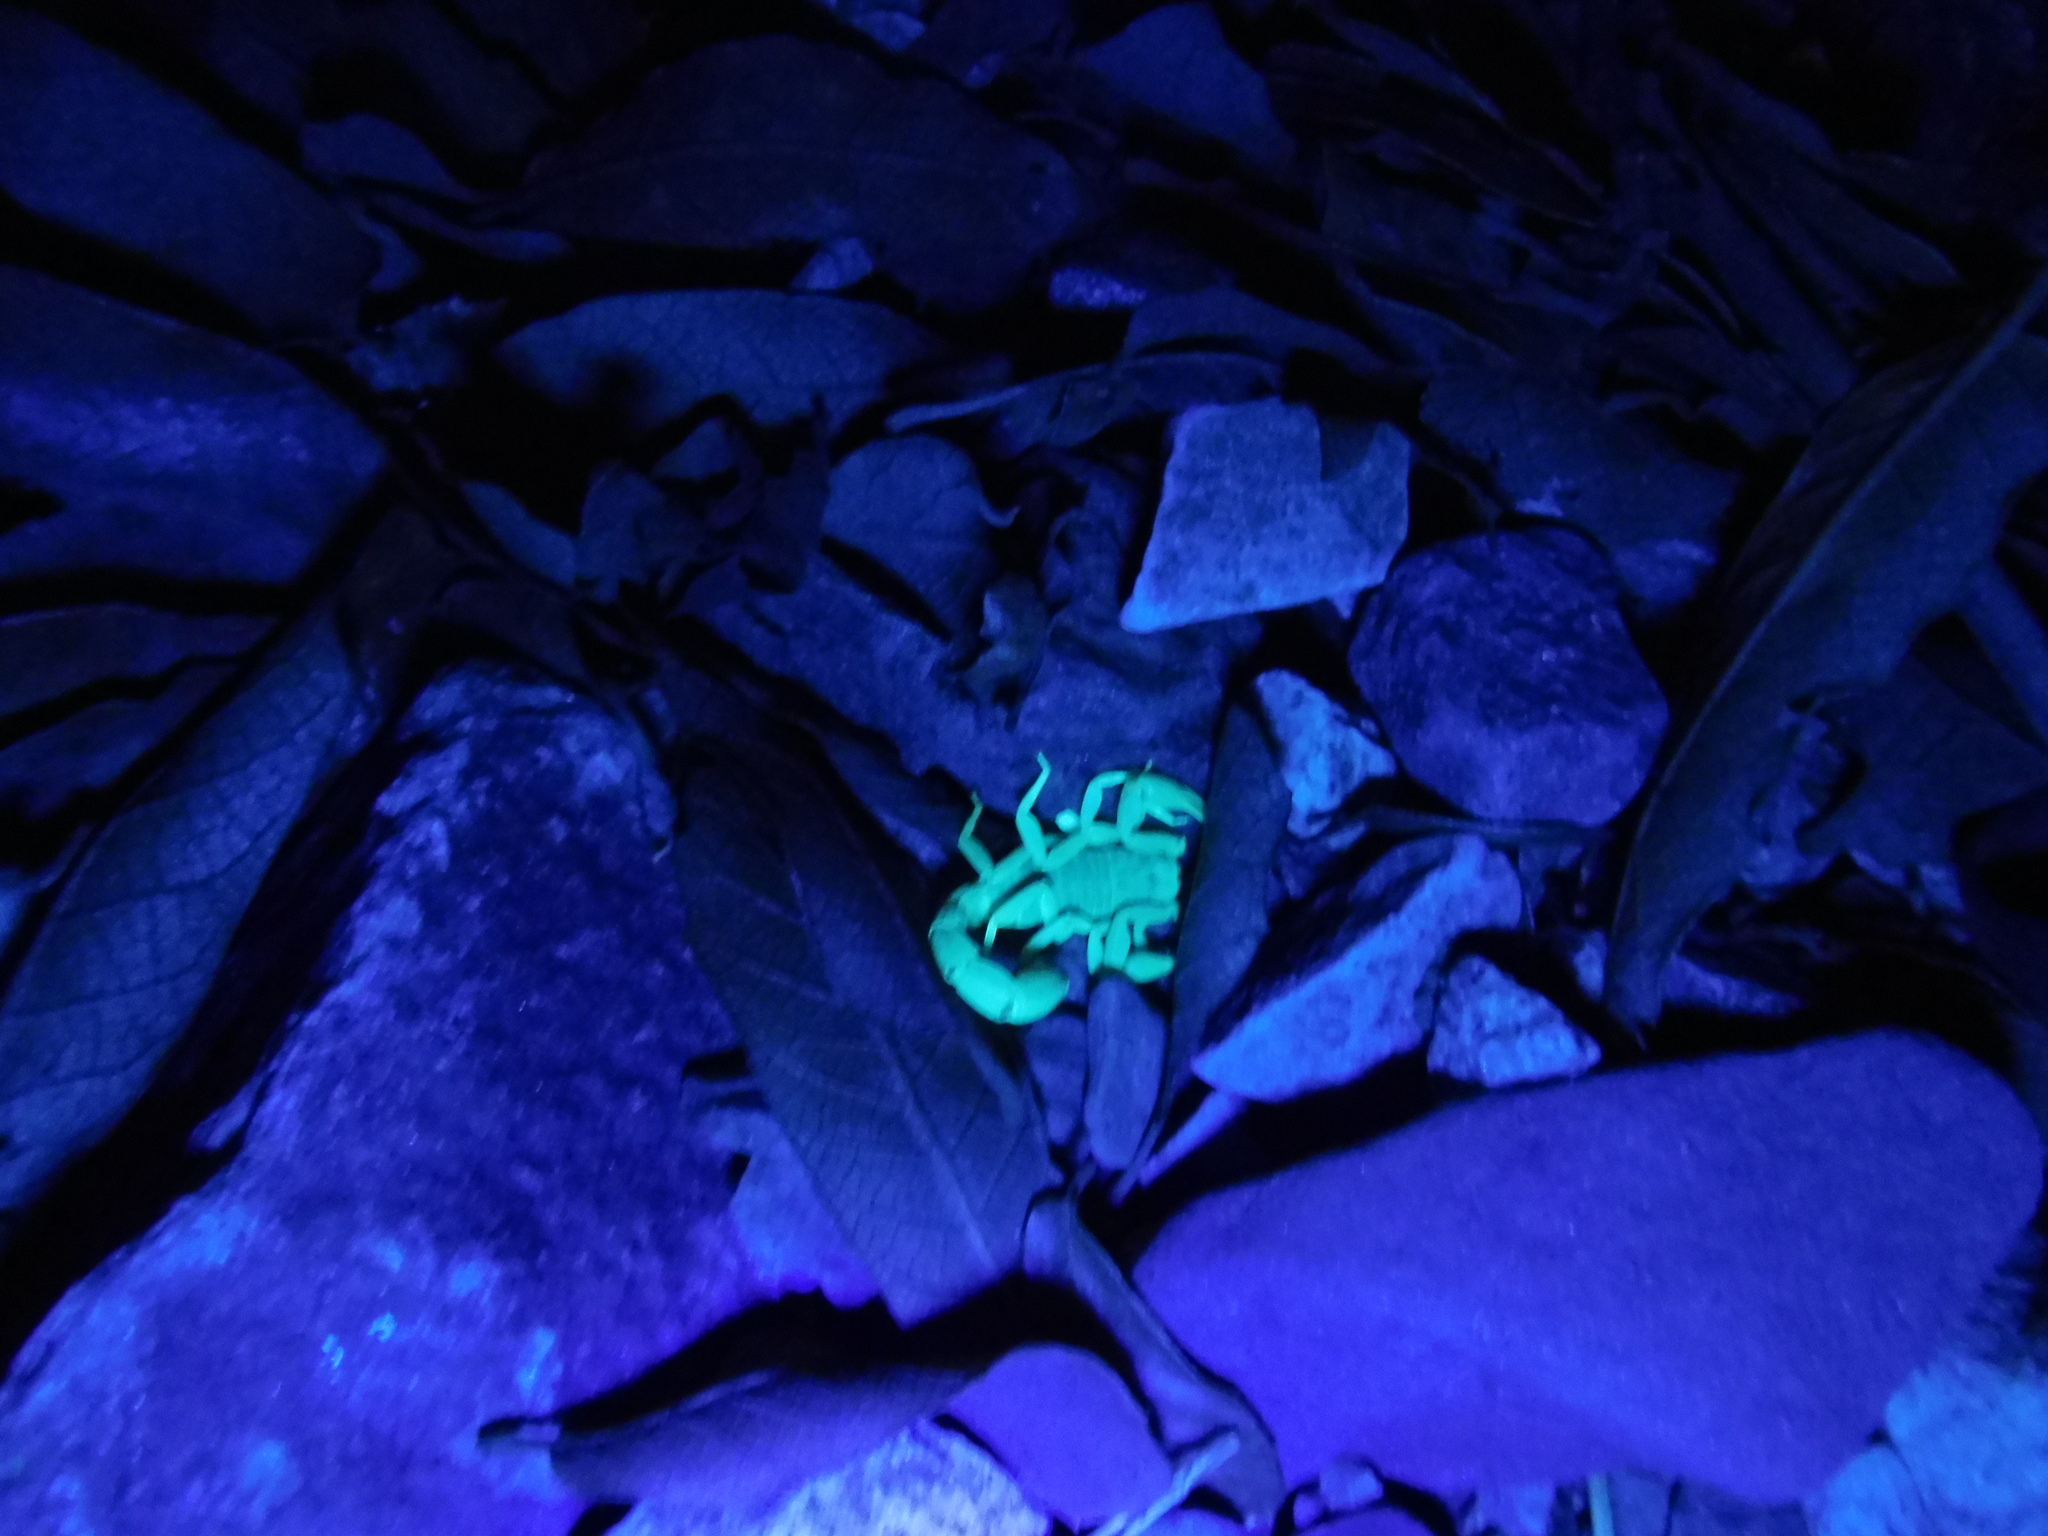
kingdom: Animalia
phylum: Arthropoda
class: Arachnida
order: Scorpiones
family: Vaejovidae
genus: Paravaejovis
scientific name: Paravaejovis spinigerus
